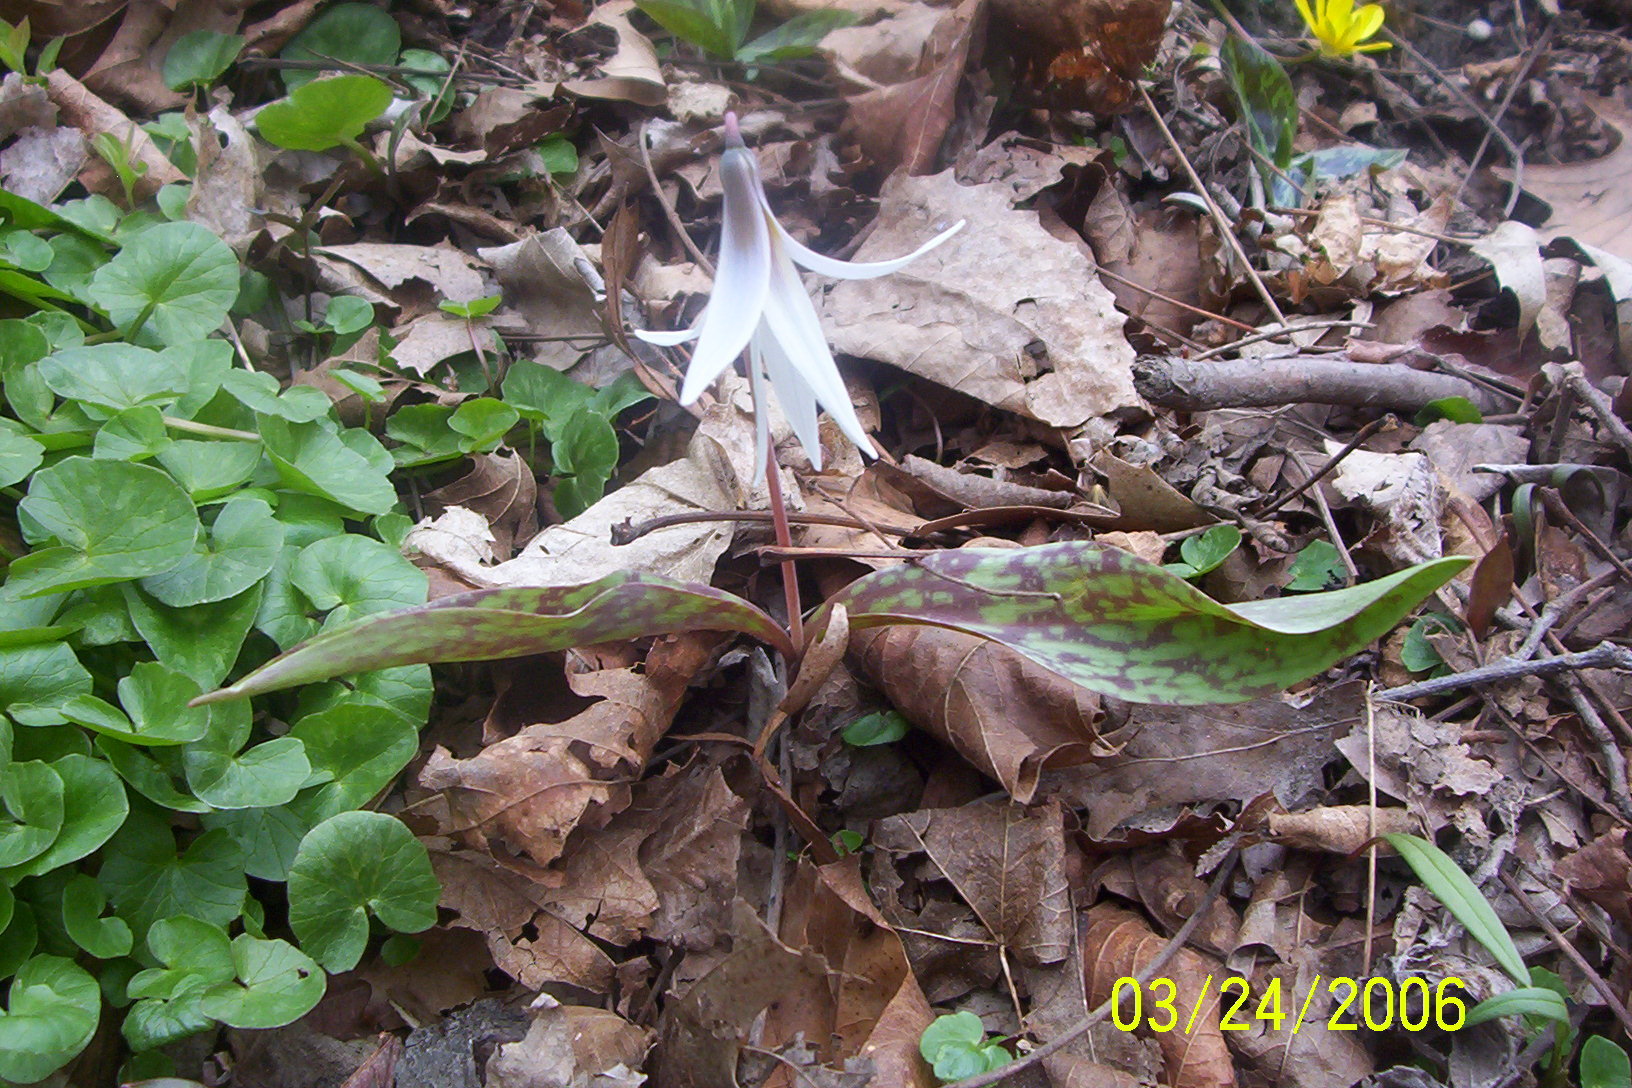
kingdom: Plantae
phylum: Tracheophyta
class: Liliopsida
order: Liliales
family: Liliaceae
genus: Erythronium
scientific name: Erythronium albidum
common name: White trout-lily
